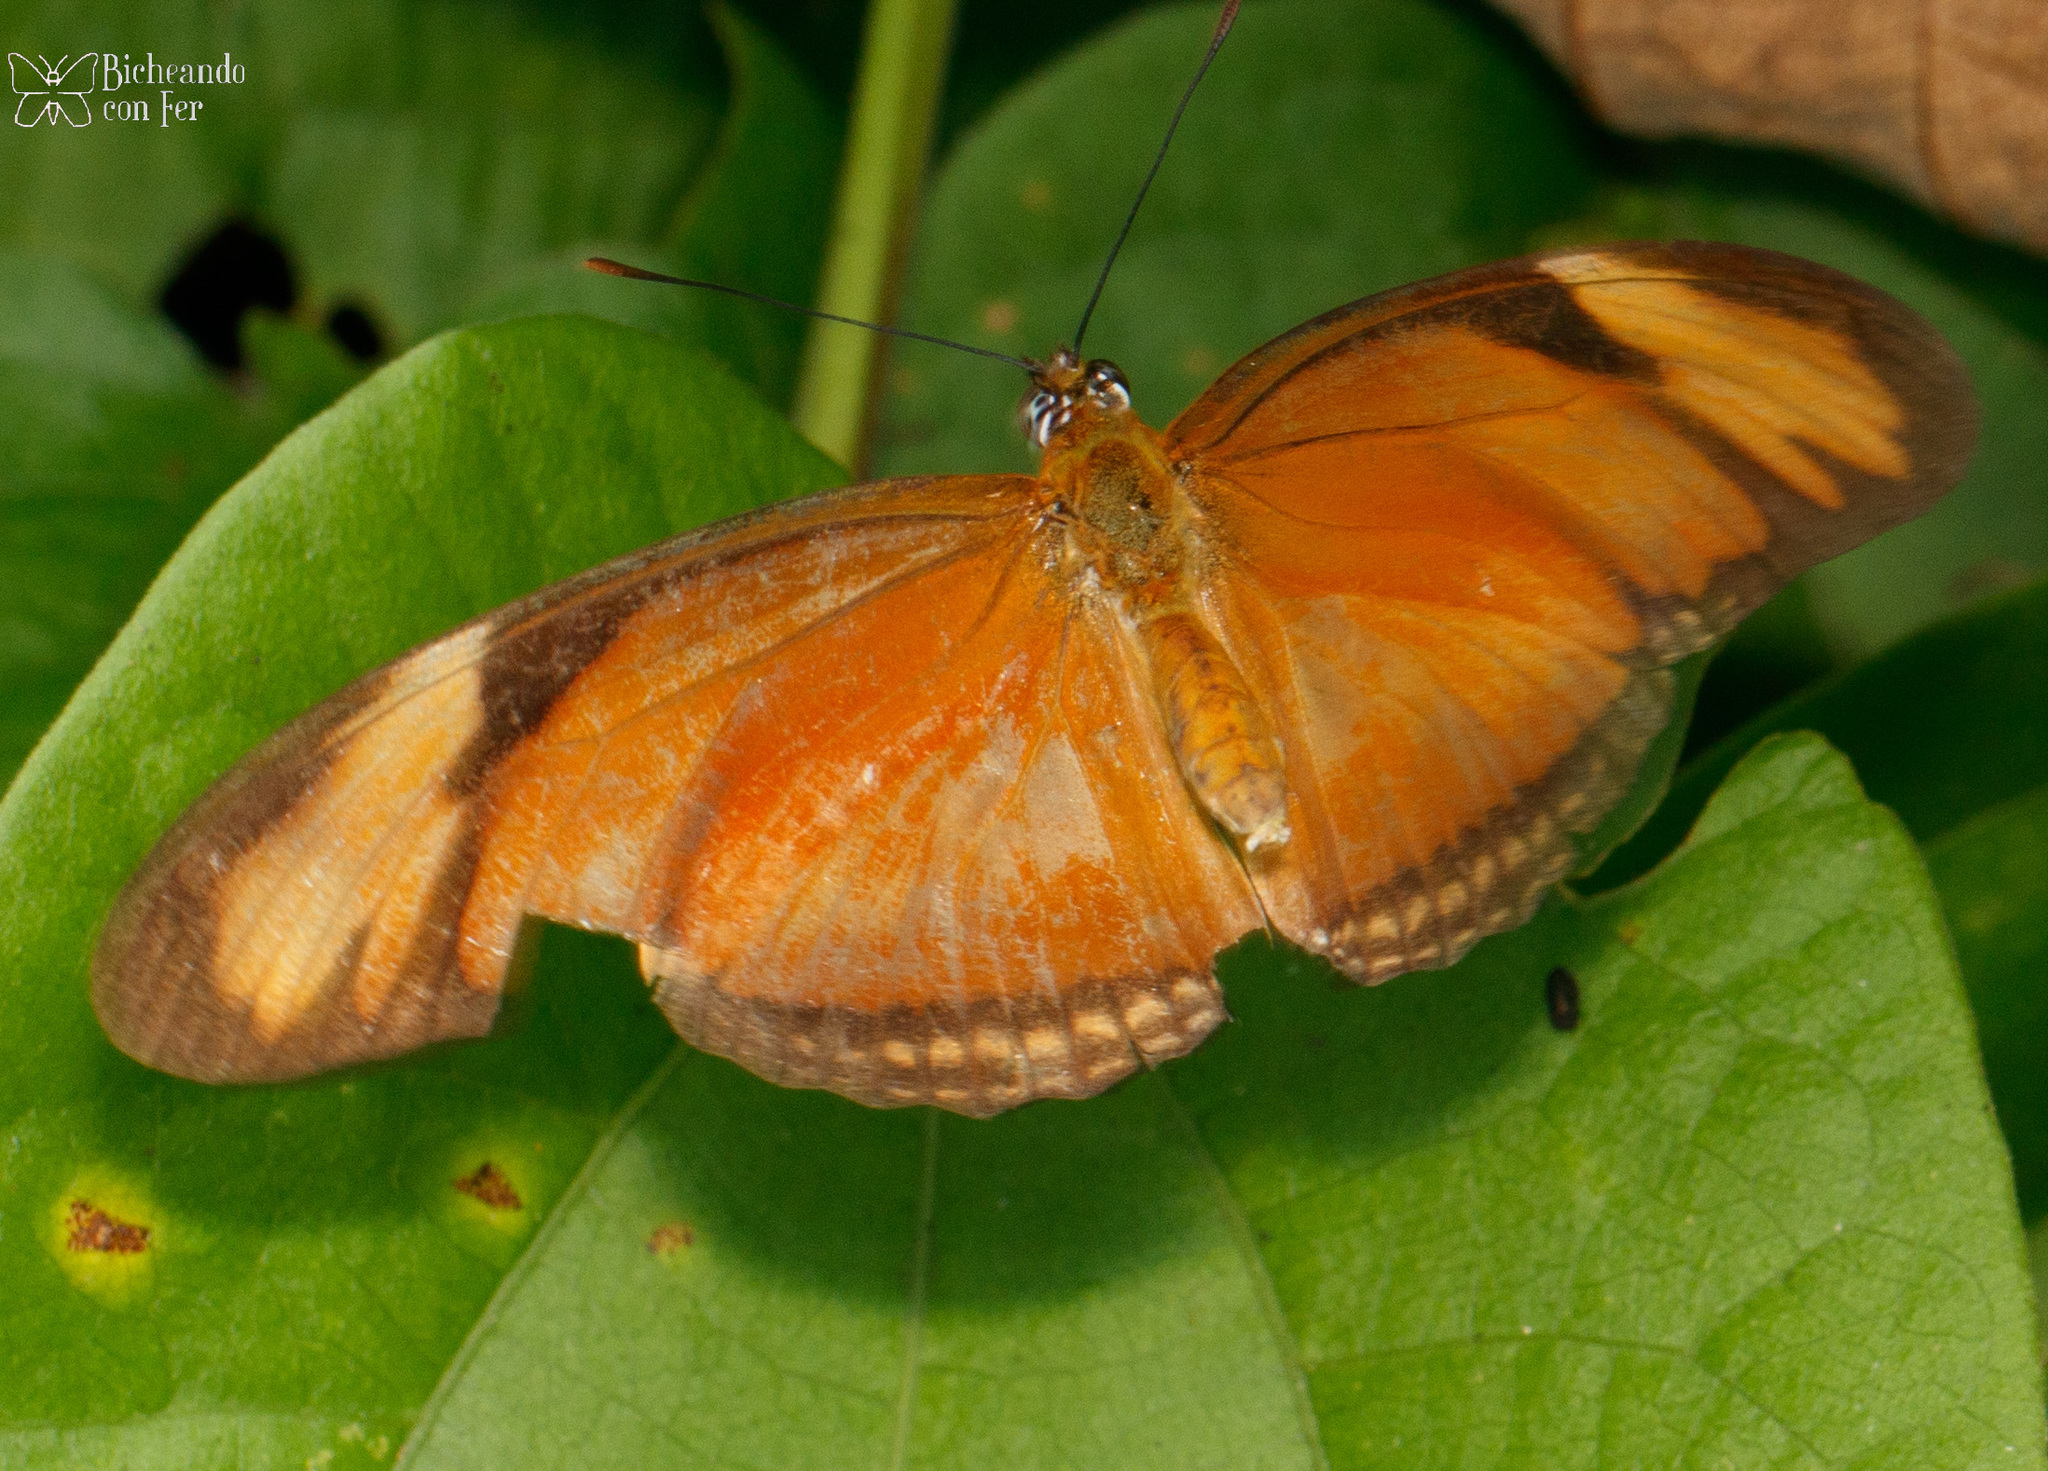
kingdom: Animalia
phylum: Arthropoda
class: Insecta
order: Lepidoptera
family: Nymphalidae
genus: Dryas
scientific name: Dryas iulia
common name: Flambeau
